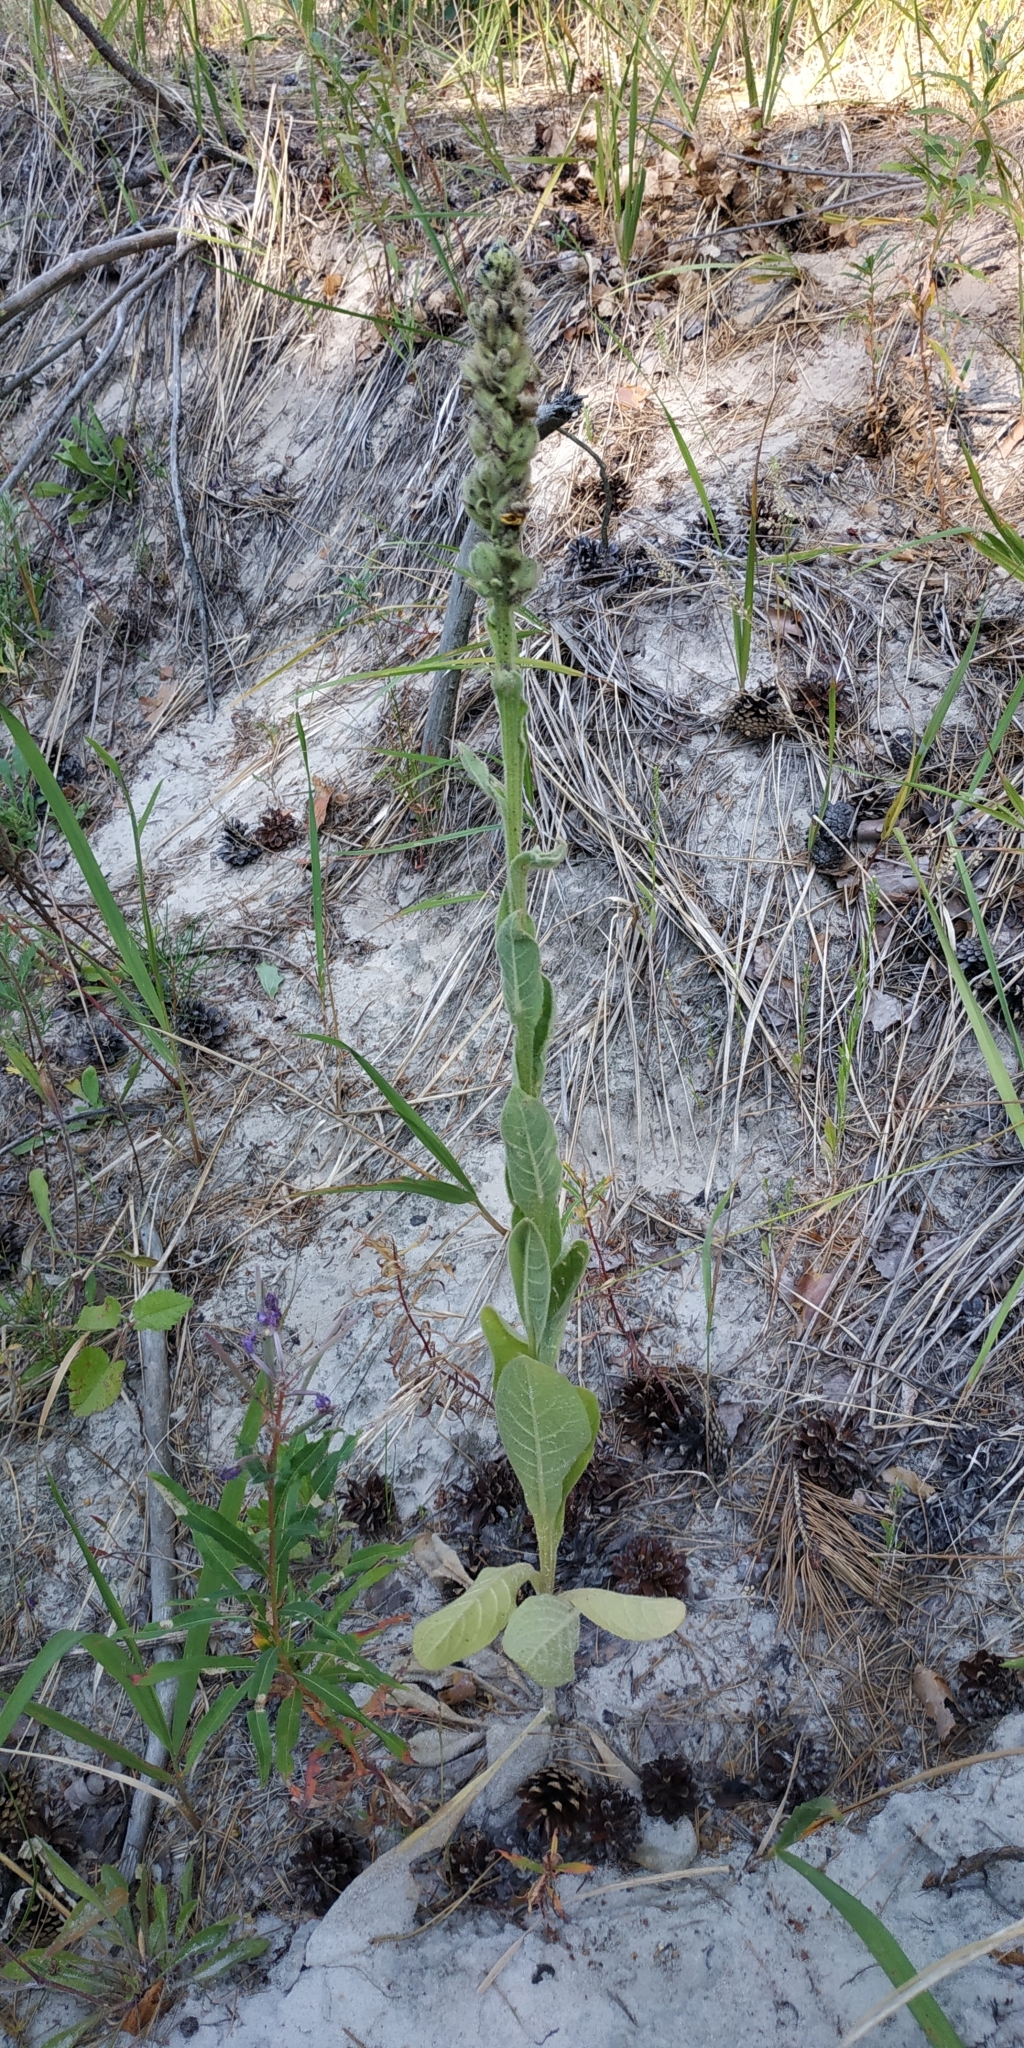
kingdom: Plantae
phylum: Tracheophyta
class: Magnoliopsida
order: Lamiales
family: Scrophulariaceae
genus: Verbascum
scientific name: Verbascum thapsus
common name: Common mullein
